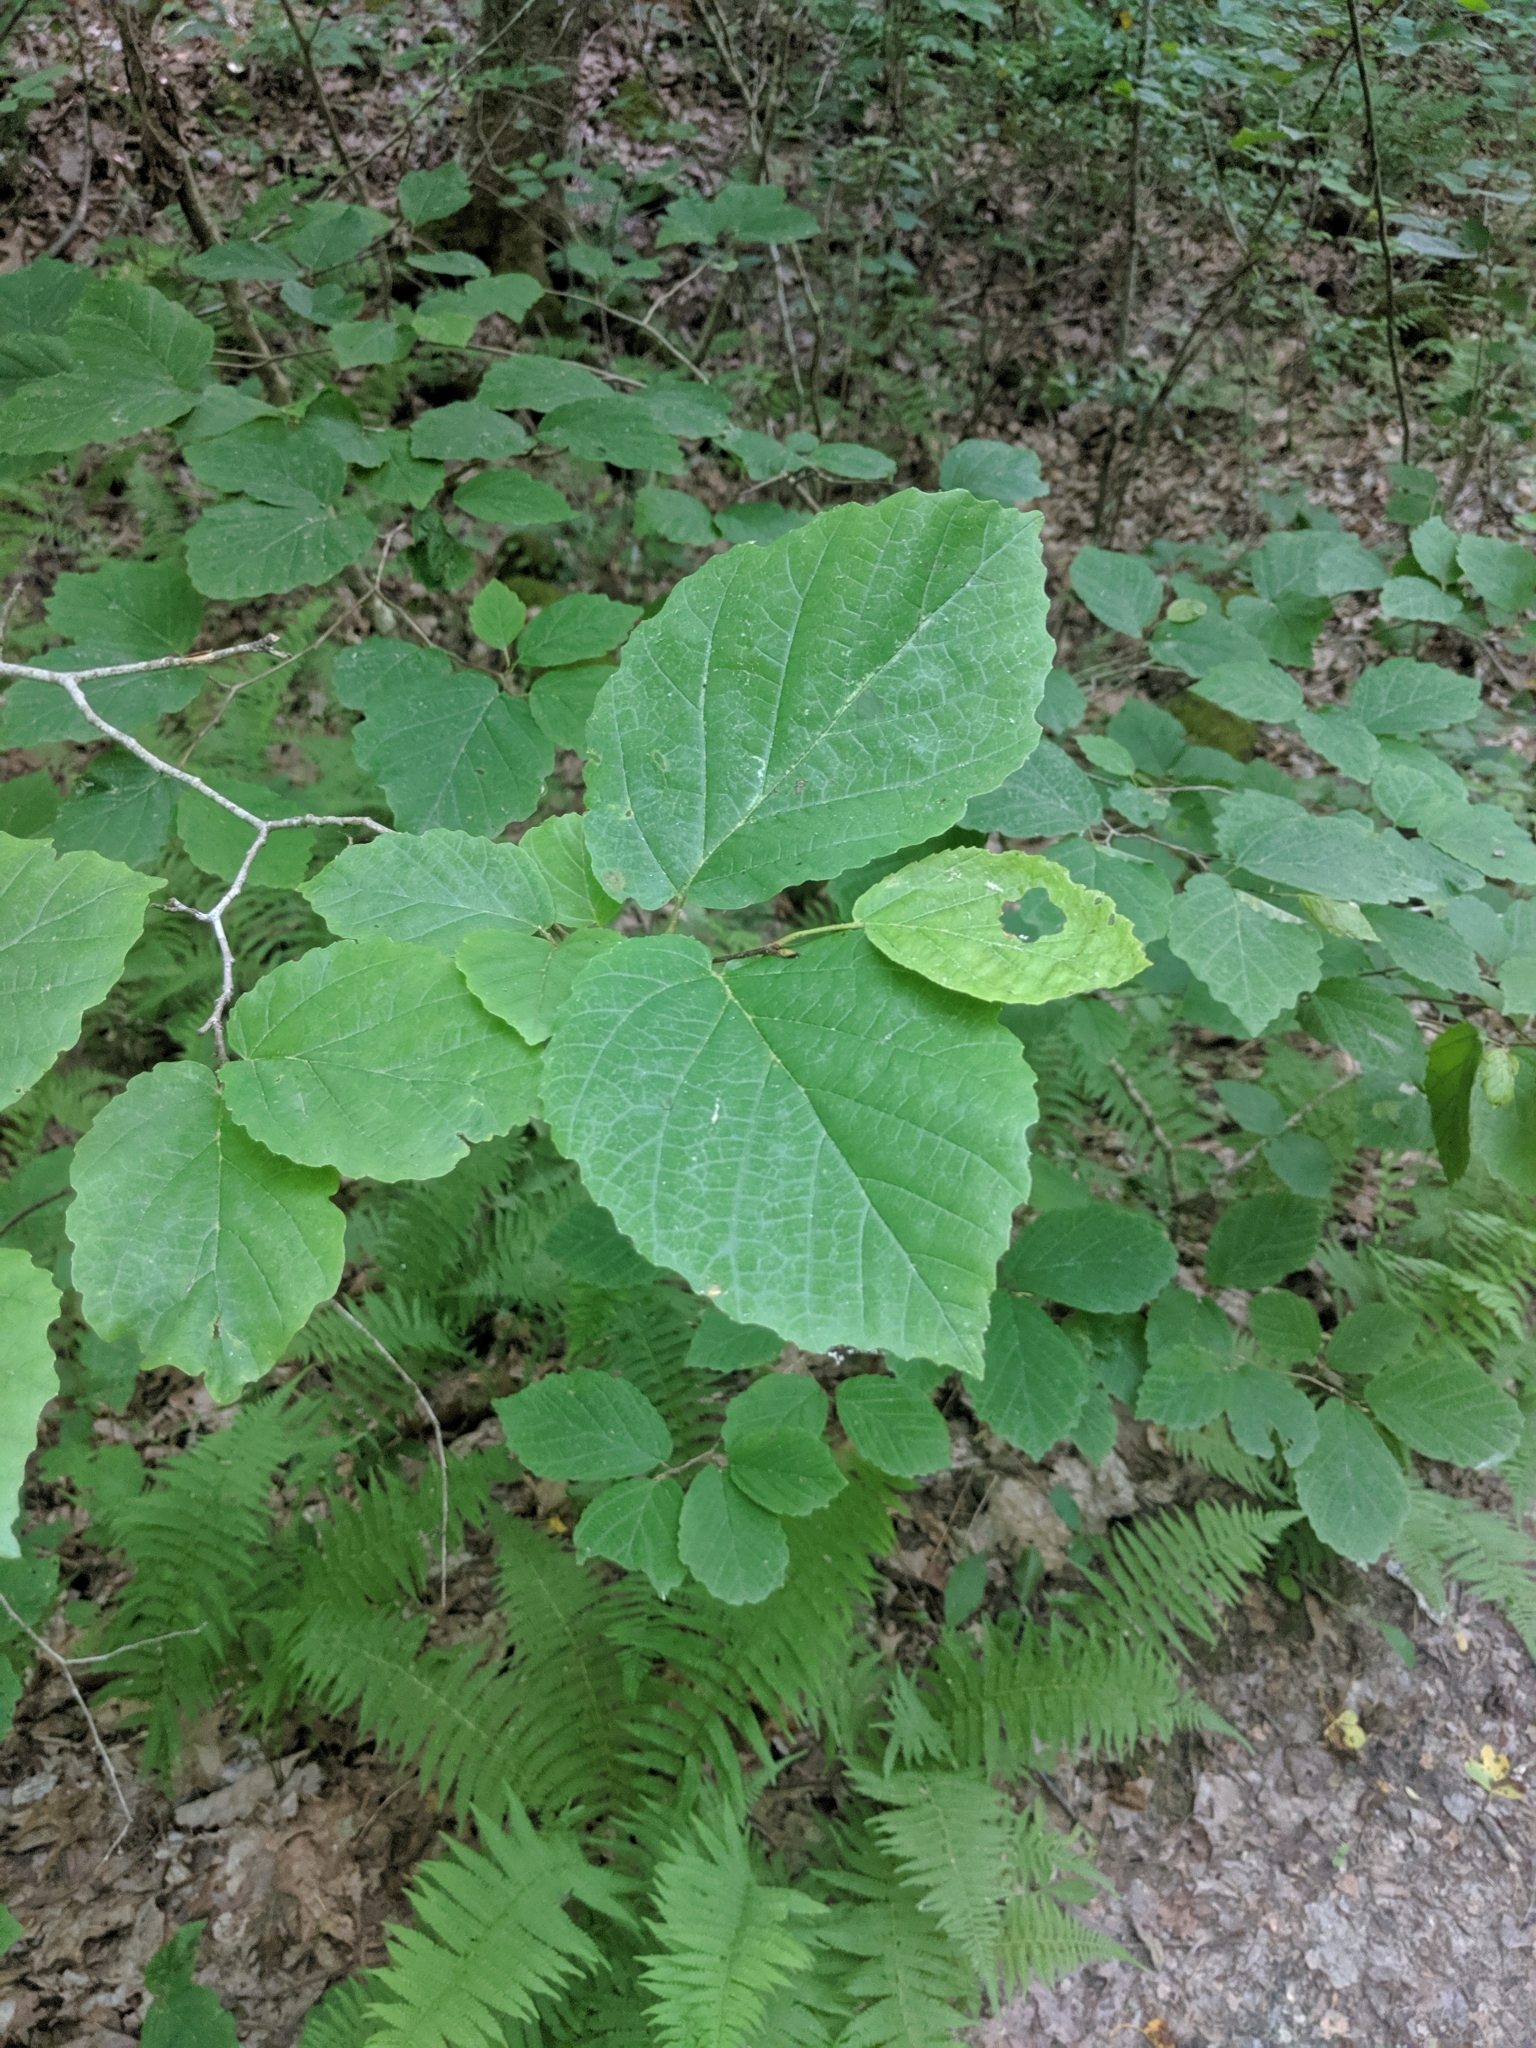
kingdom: Plantae
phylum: Tracheophyta
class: Magnoliopsida
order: Saxifragales
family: Hamamelidaceae
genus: Hamamelis
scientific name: Hamamelis virginiana
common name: Witch-hazel
